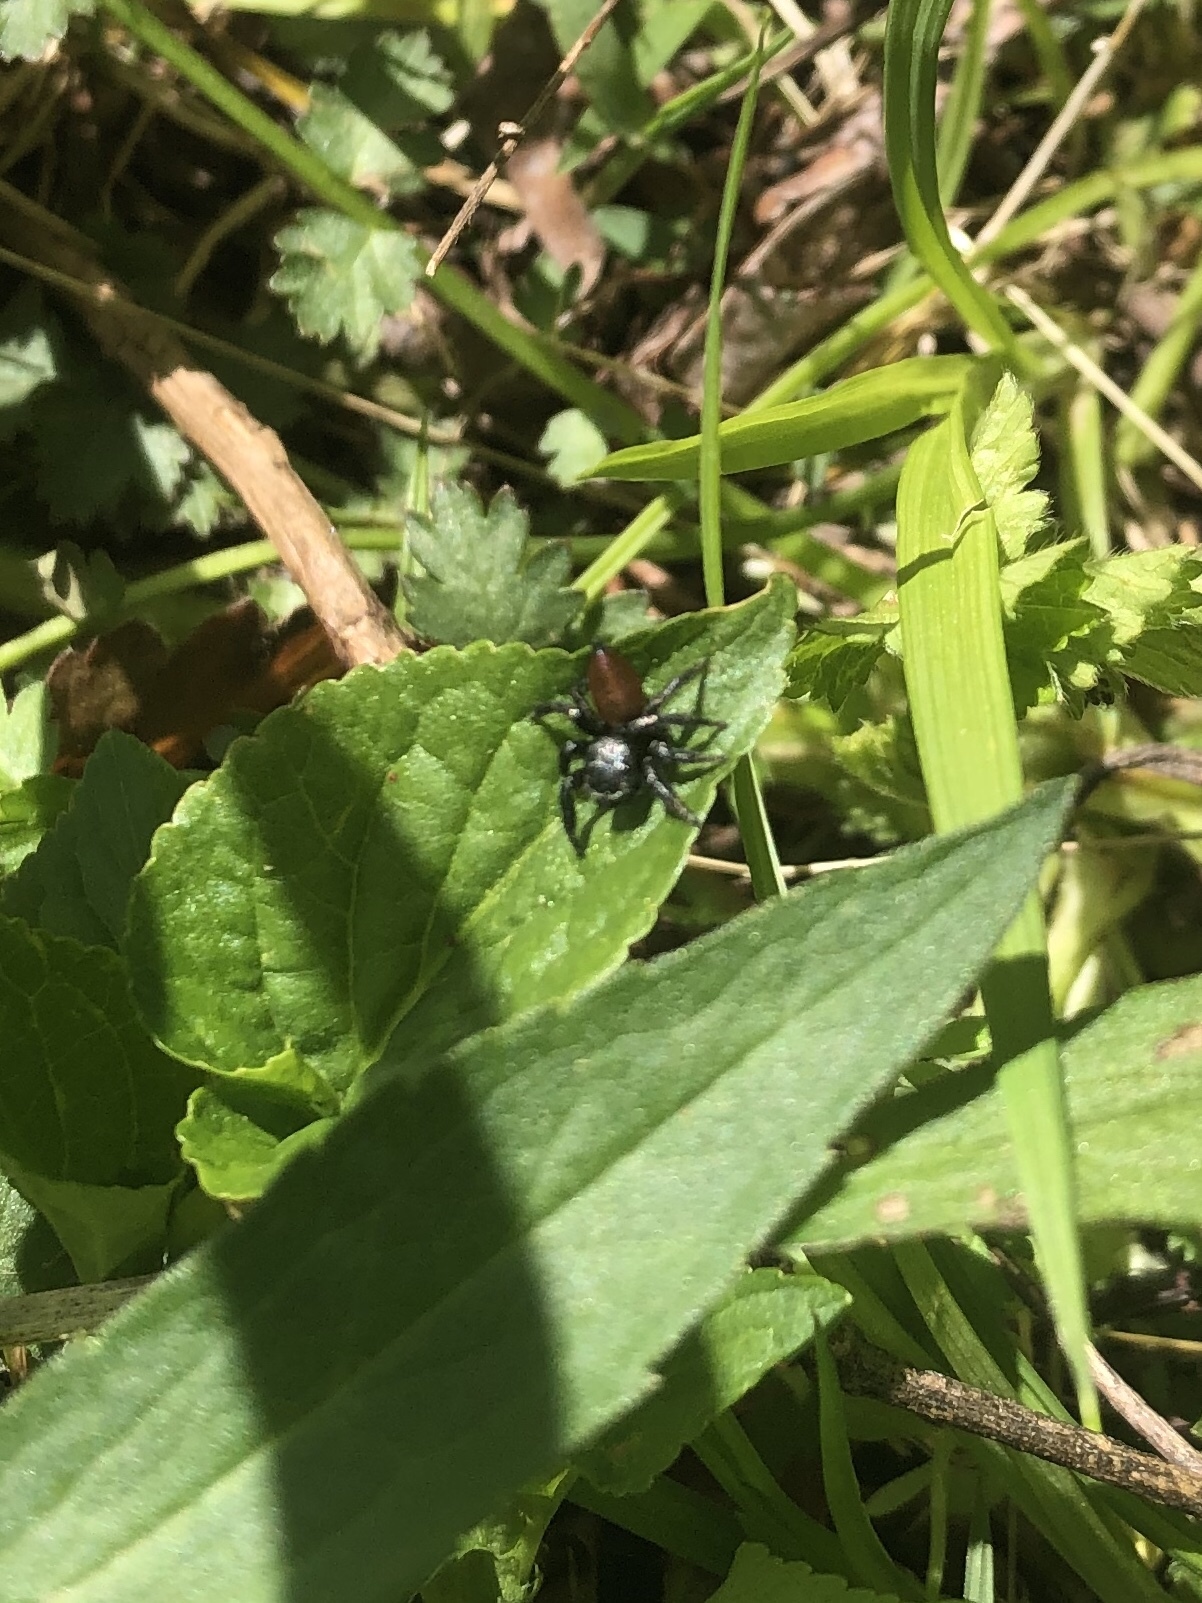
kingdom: Animalia
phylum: Arthropoda
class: Arachnida
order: Araneae
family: Salticidae
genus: Habronattus
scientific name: Habronattus decorus
